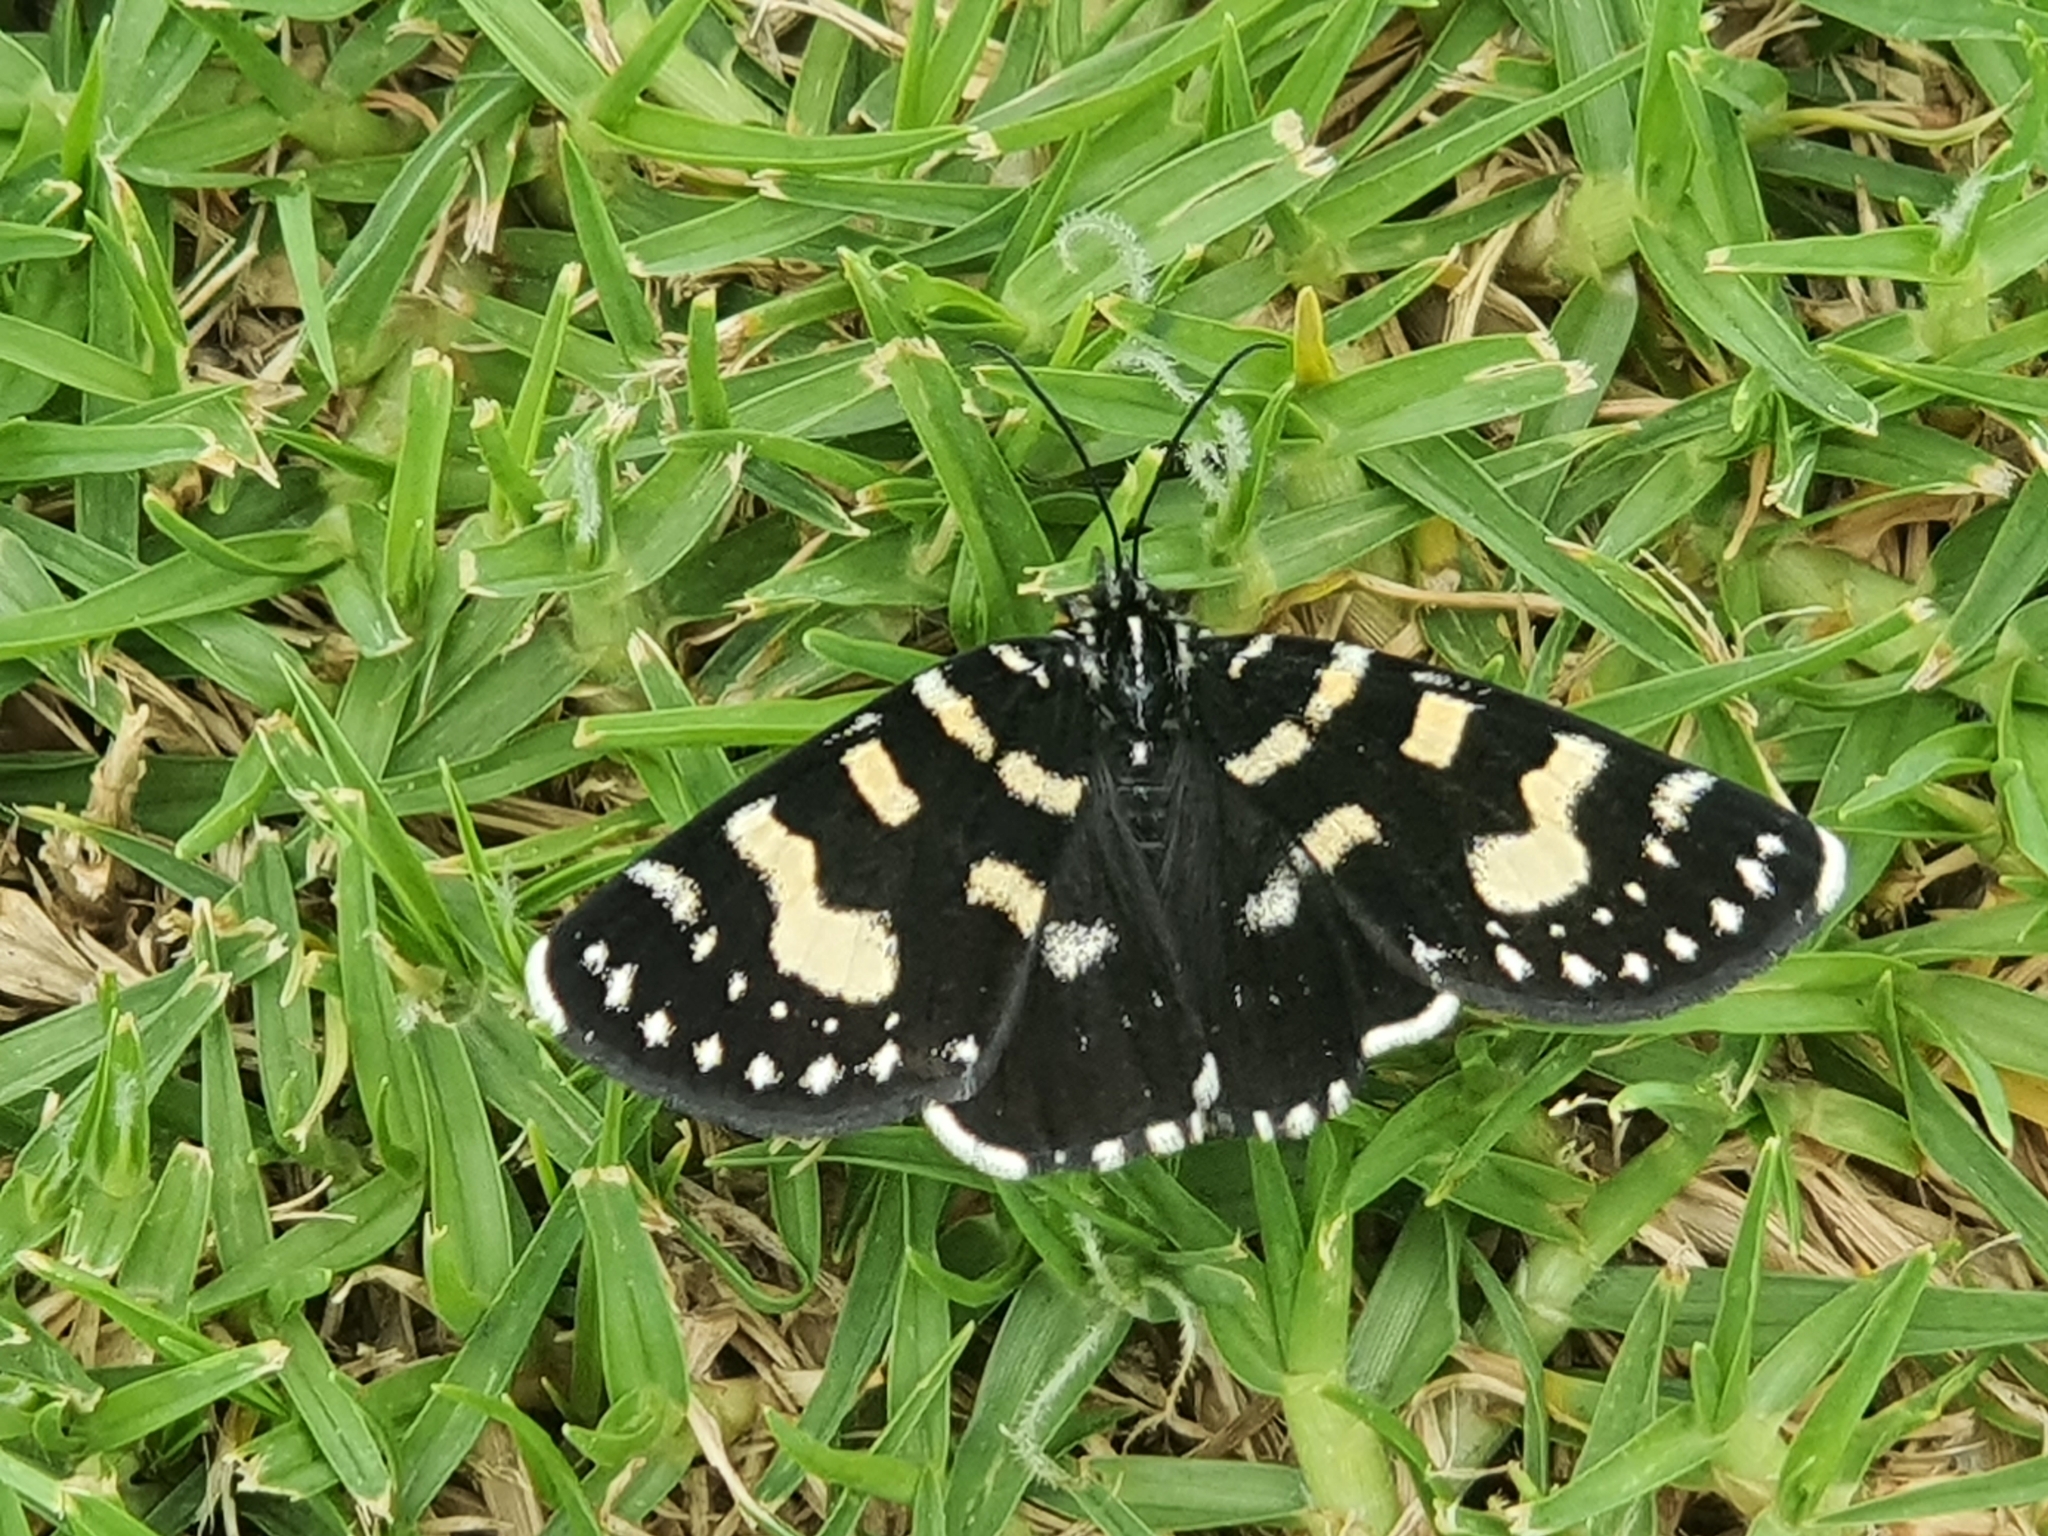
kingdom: Animalia
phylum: Arthropoda
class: Insecta
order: Lepidoptera
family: Noctuidae
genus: Phalaenoides
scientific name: Phalaenoides tristifica
